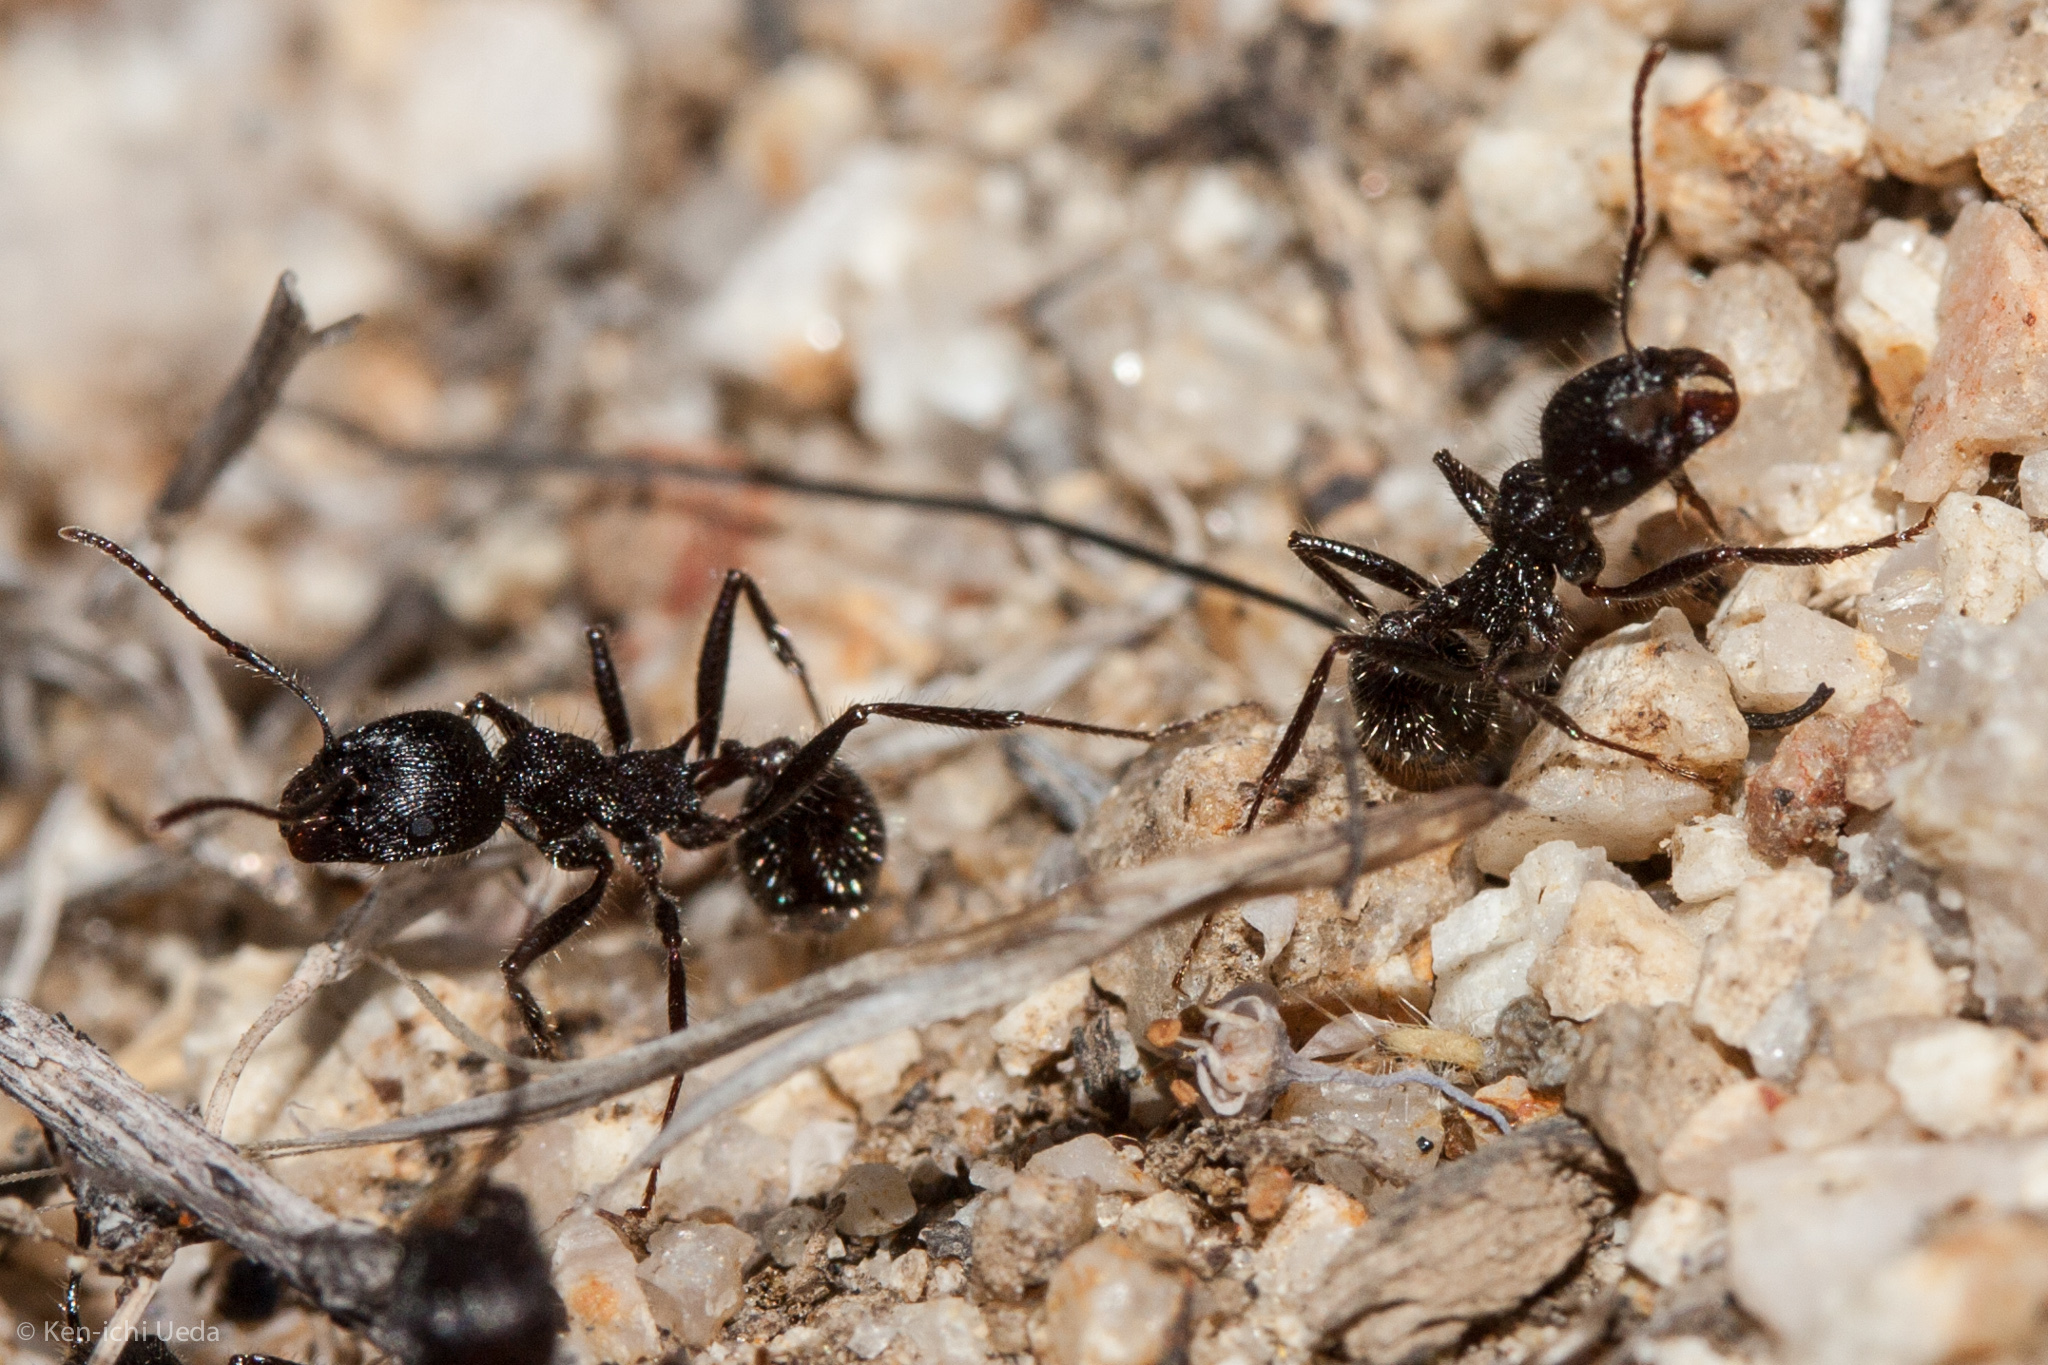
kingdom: Animalia
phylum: Arthropoda
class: Insecta
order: Hymenoptera
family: Formicidae
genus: Veromessor
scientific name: Veromessor andrei
